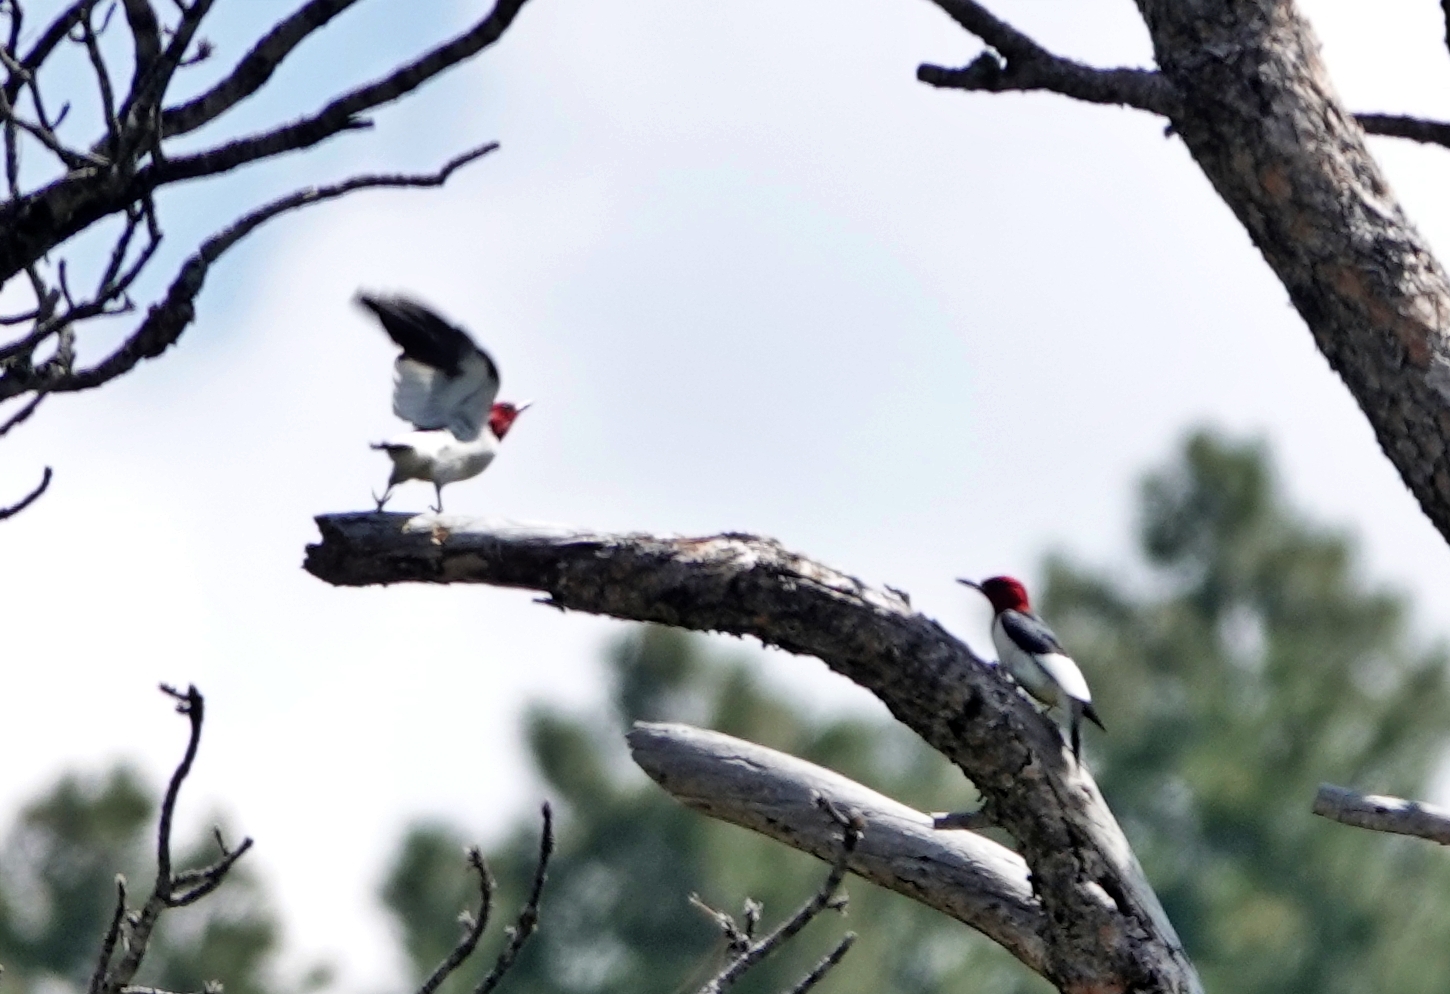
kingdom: Animalia
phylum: Chordata
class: Aves
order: Piciformes
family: Picidae
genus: Melanerpes
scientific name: Melanerpes erythrocephalus
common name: Red-headed woodpecker
